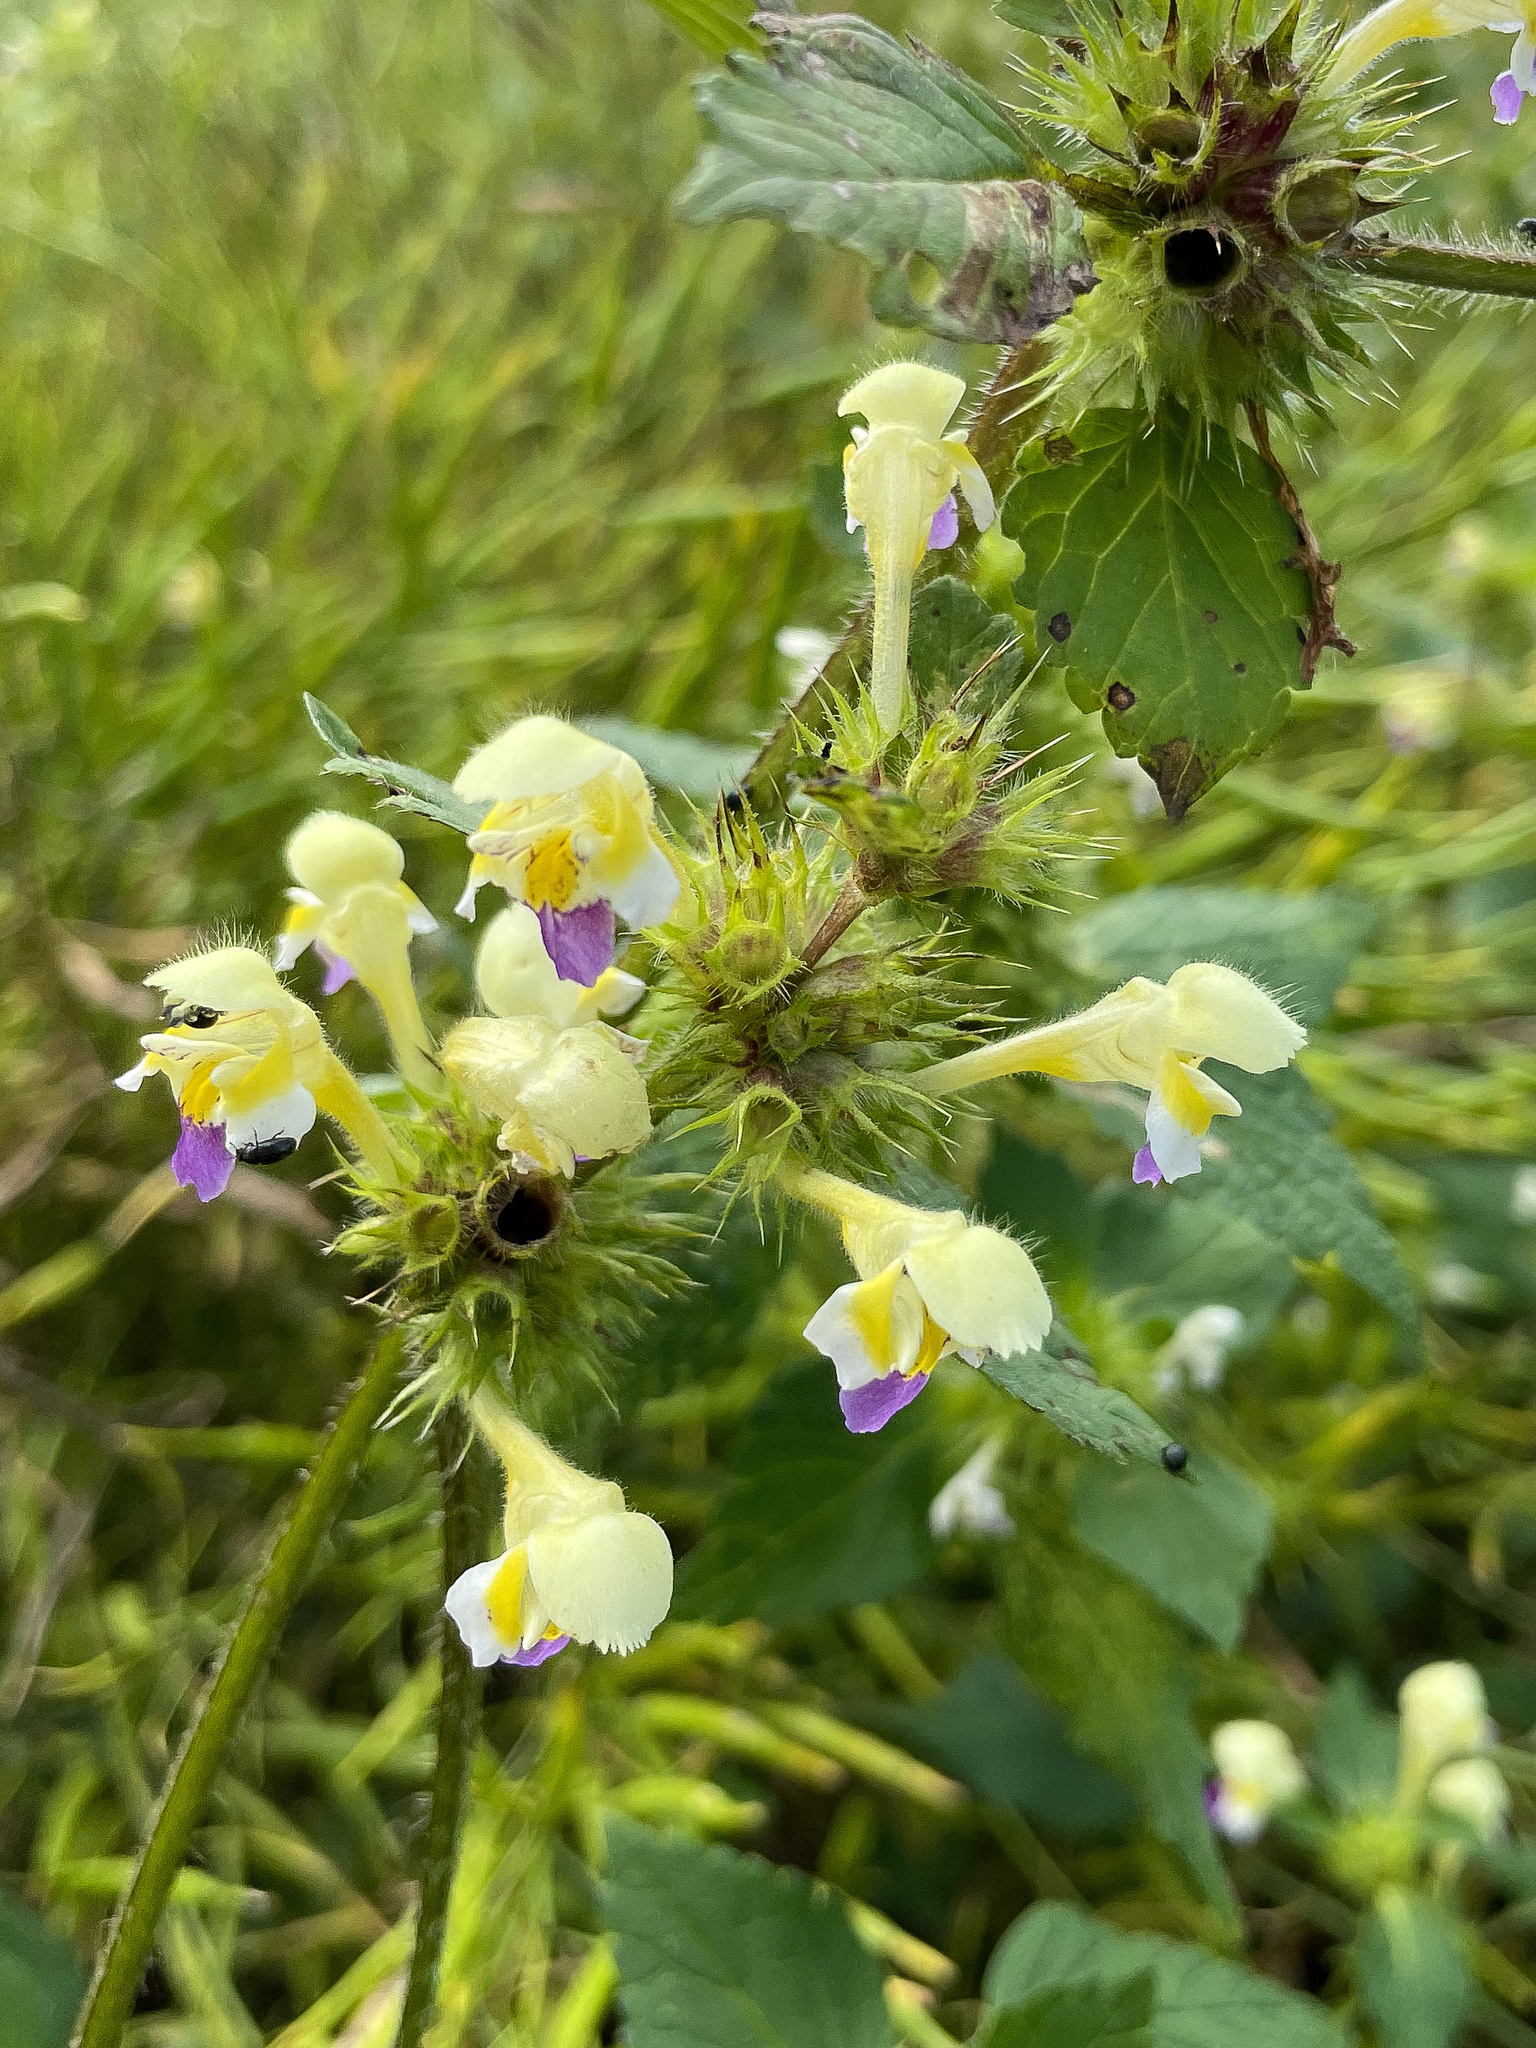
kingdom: Plantae
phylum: Tracheophyta
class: Magnoliopsida
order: Lamiales
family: Lamiaceae
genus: Galeopsis
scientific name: Galeopsis speciosa
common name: Large-flowered hemp-nettle
